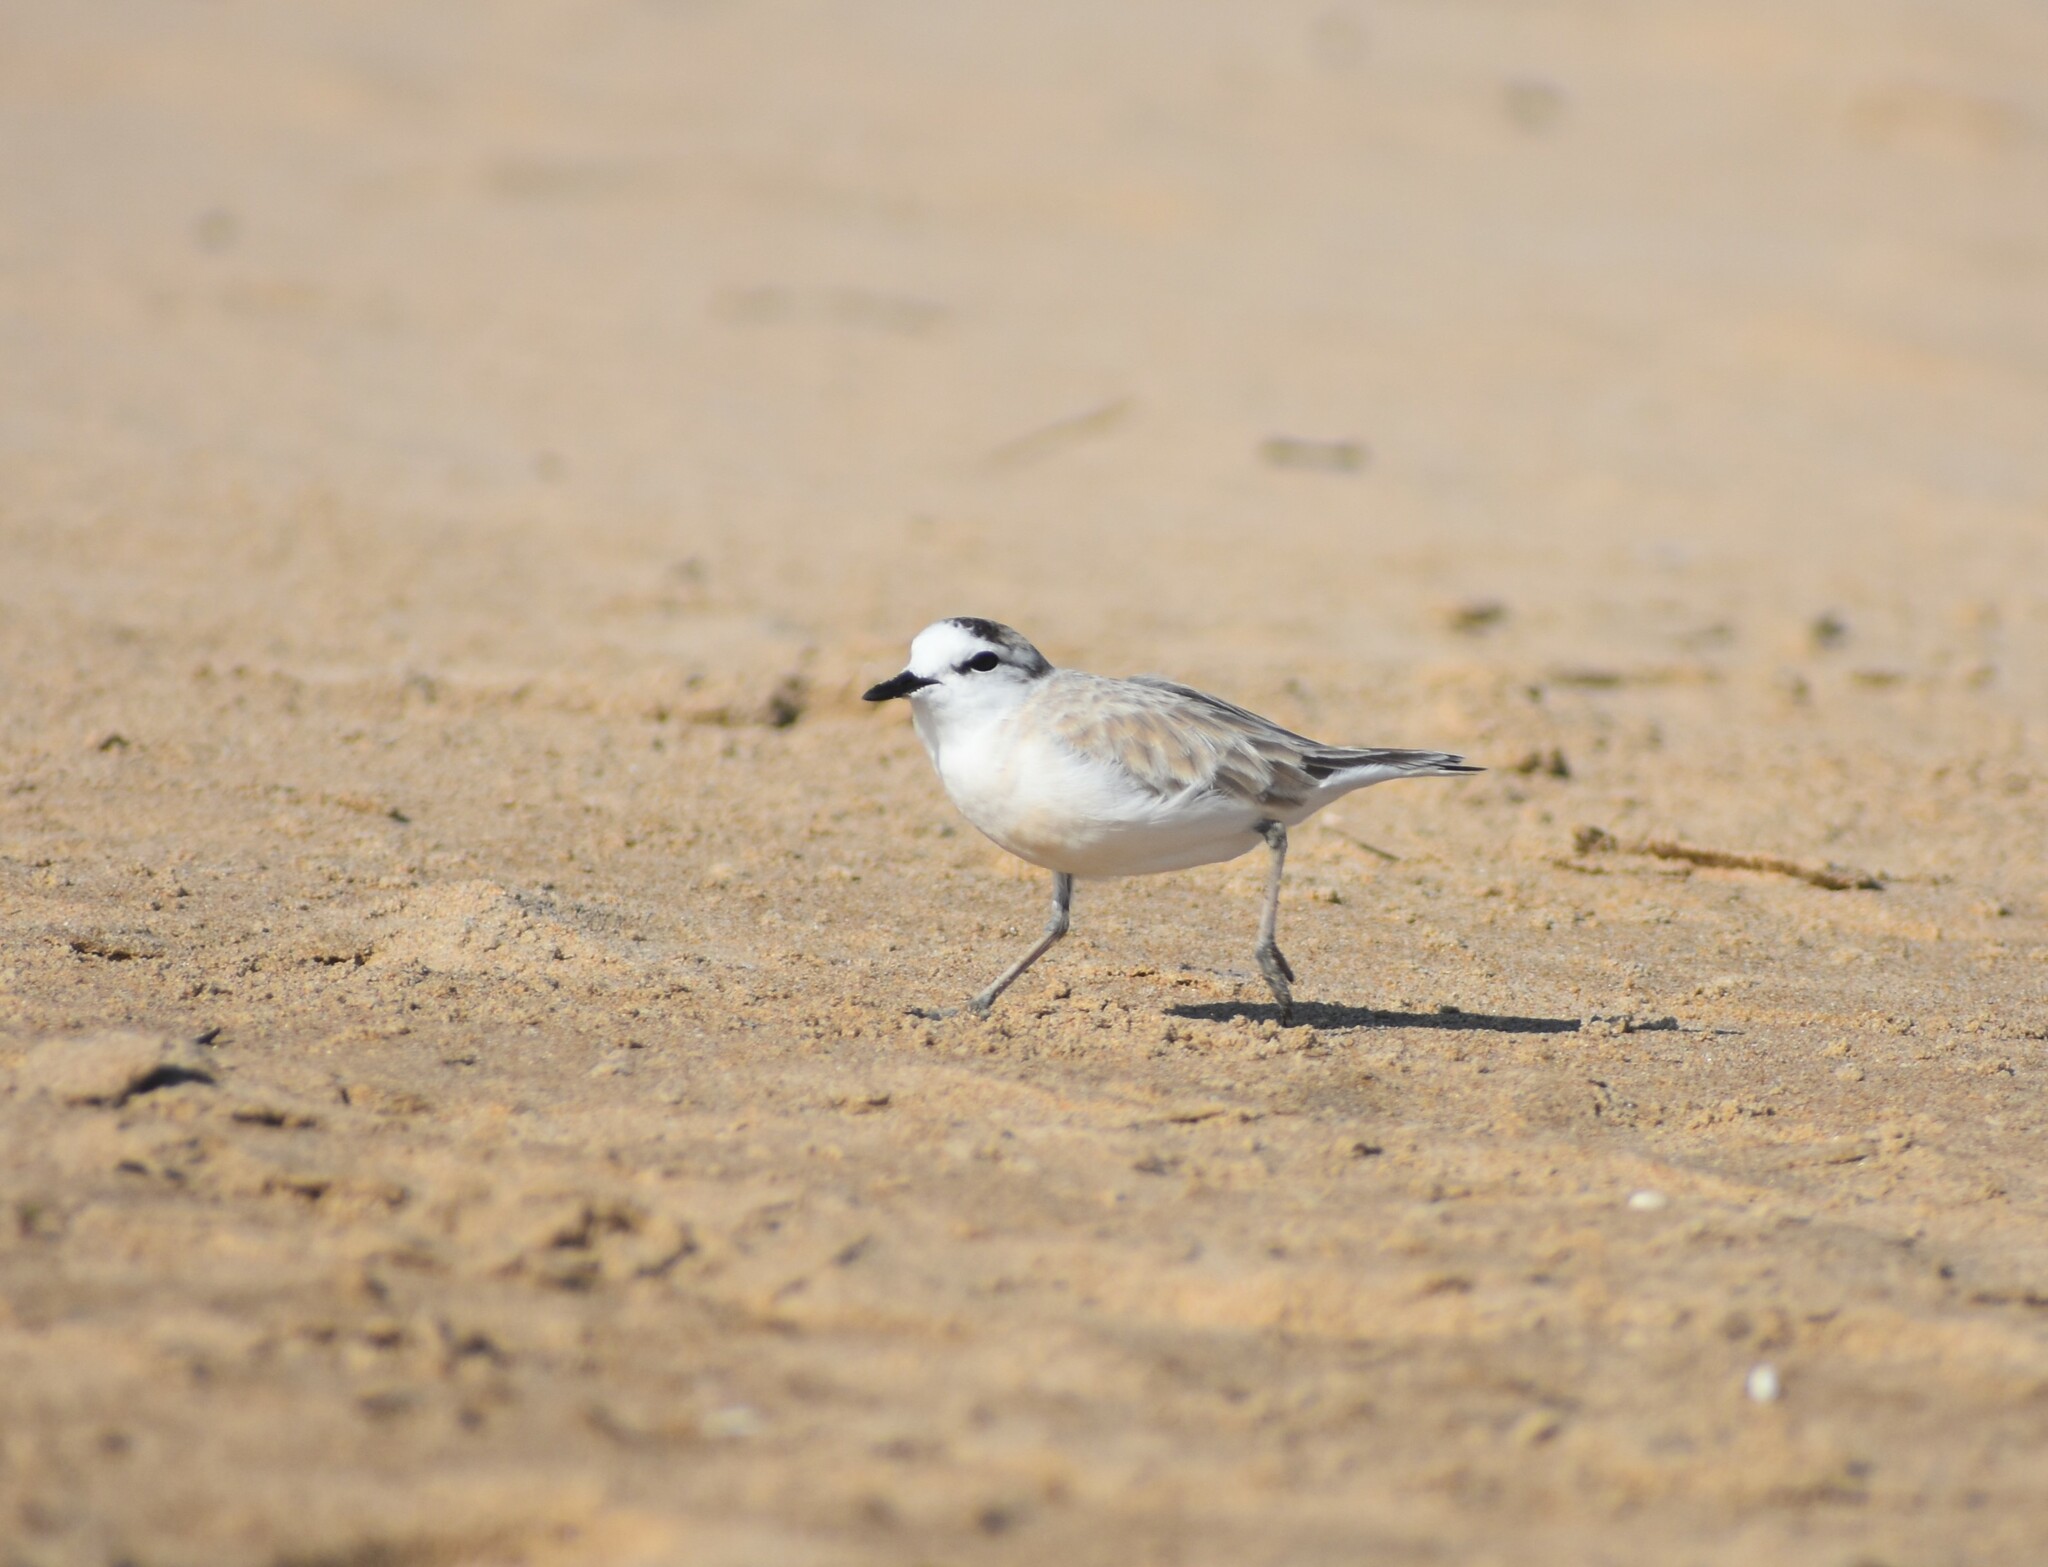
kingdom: Animalia
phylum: Chordata
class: Aves
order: Charadriiformes
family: Charadriidae
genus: Anarhynchus
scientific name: Anarhynchus
